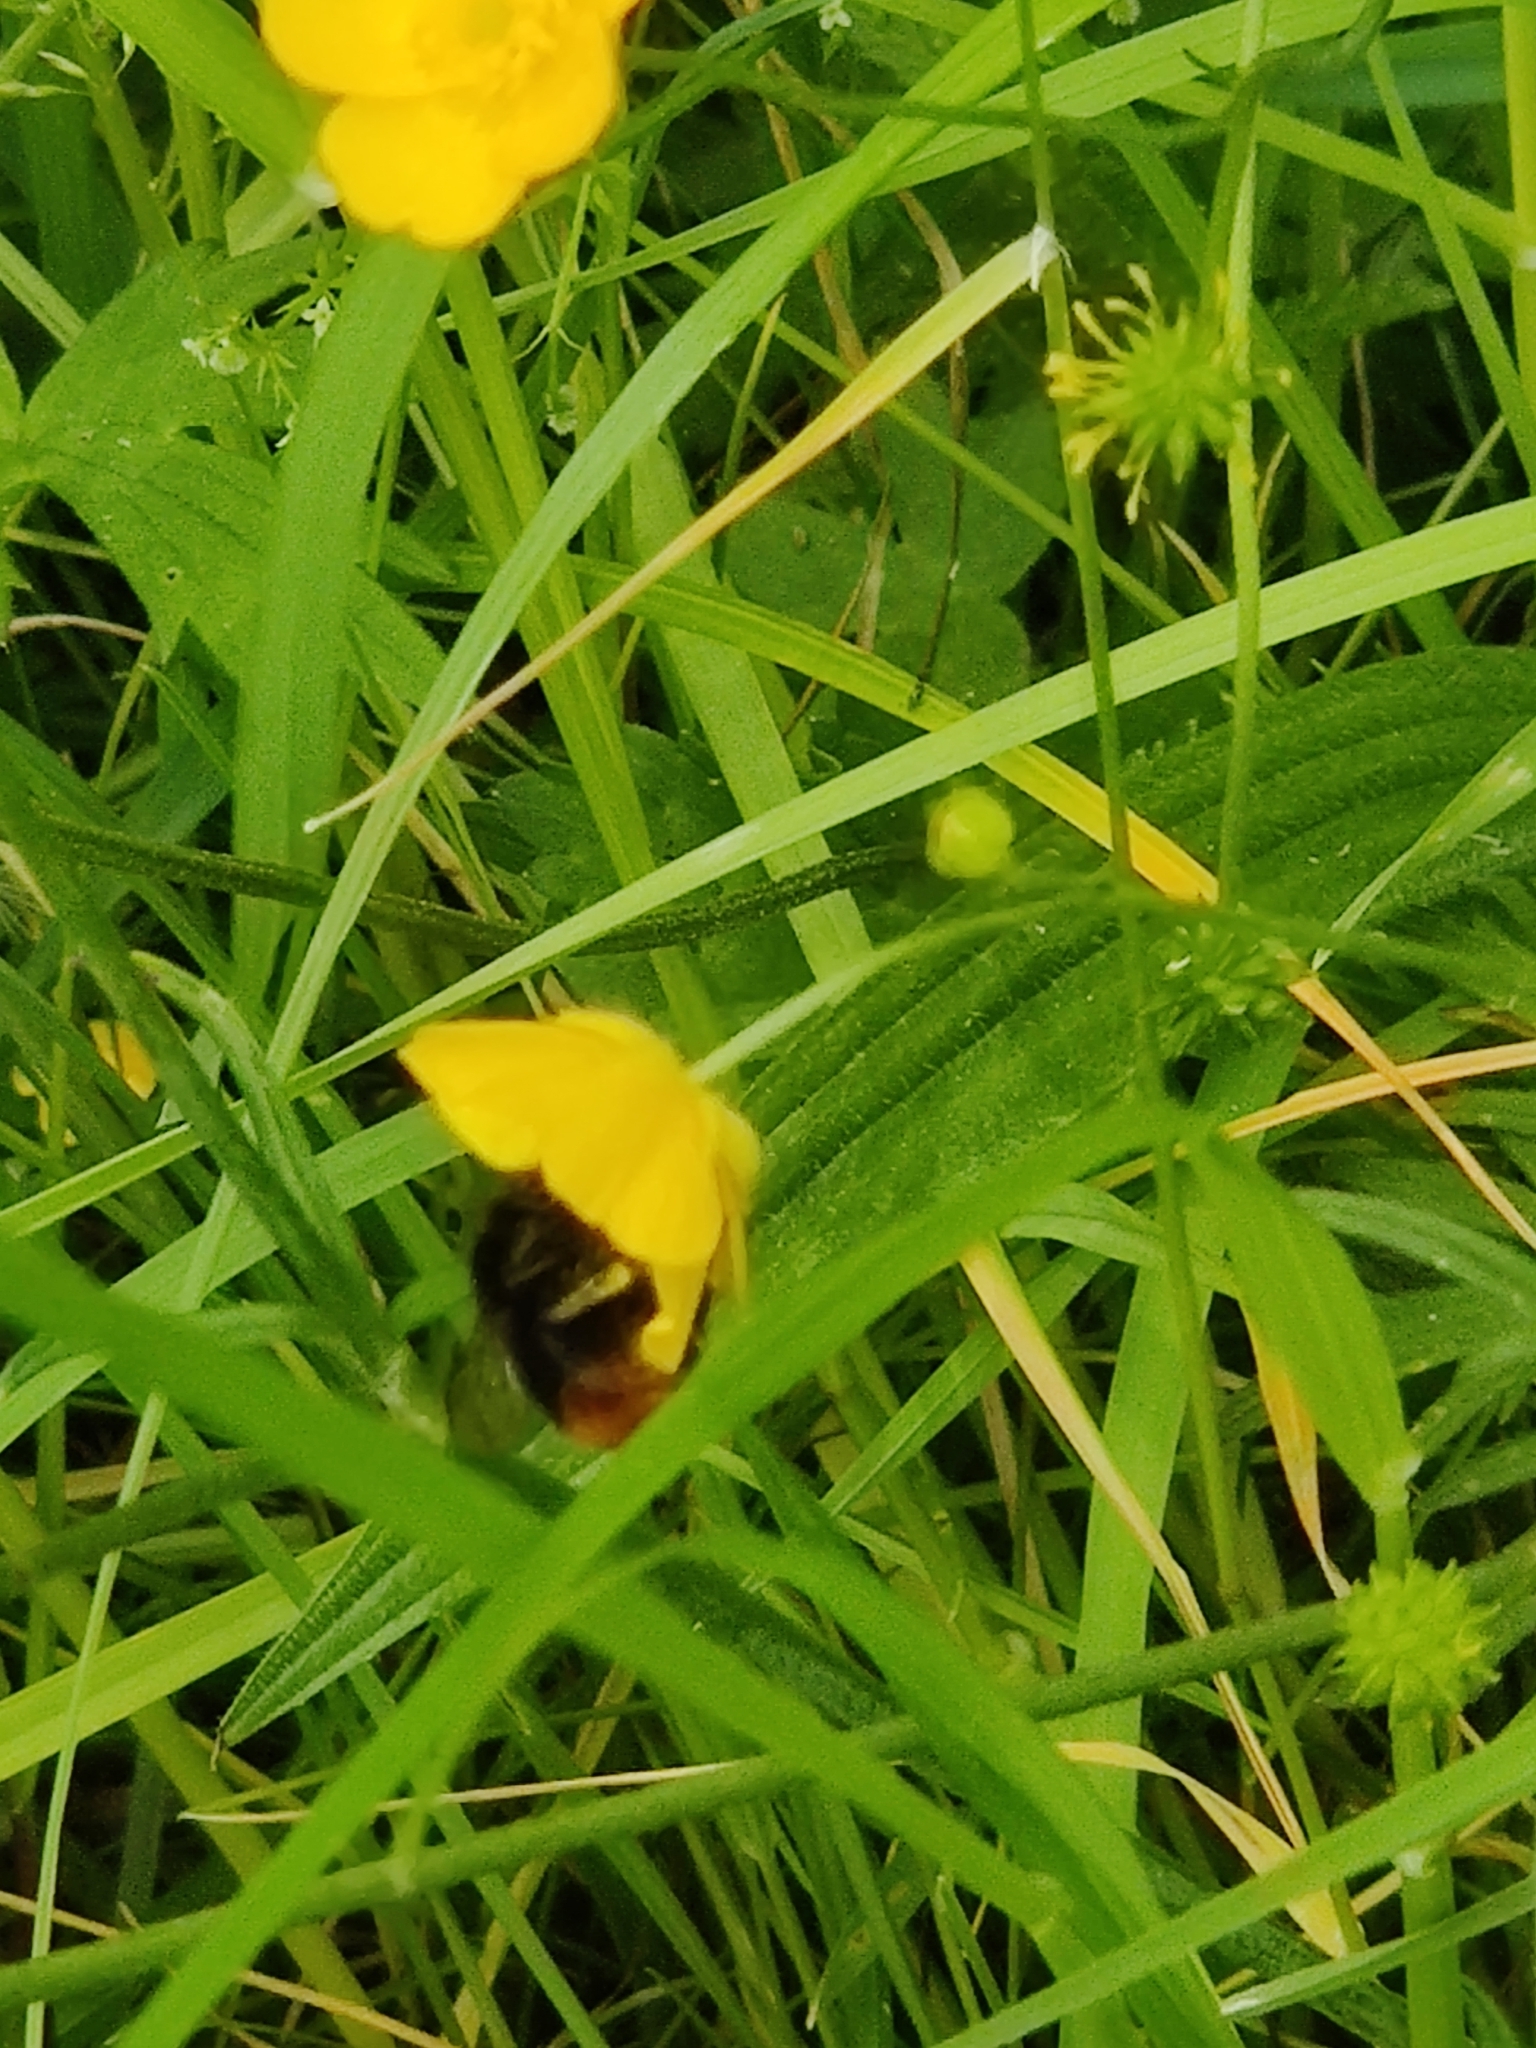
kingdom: Animalia
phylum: Arthropoda
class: Insecta
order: Hymenoptera
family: Apidae
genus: Bombus
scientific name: Bombus lapidarius
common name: Large red-tailed humble-bee
